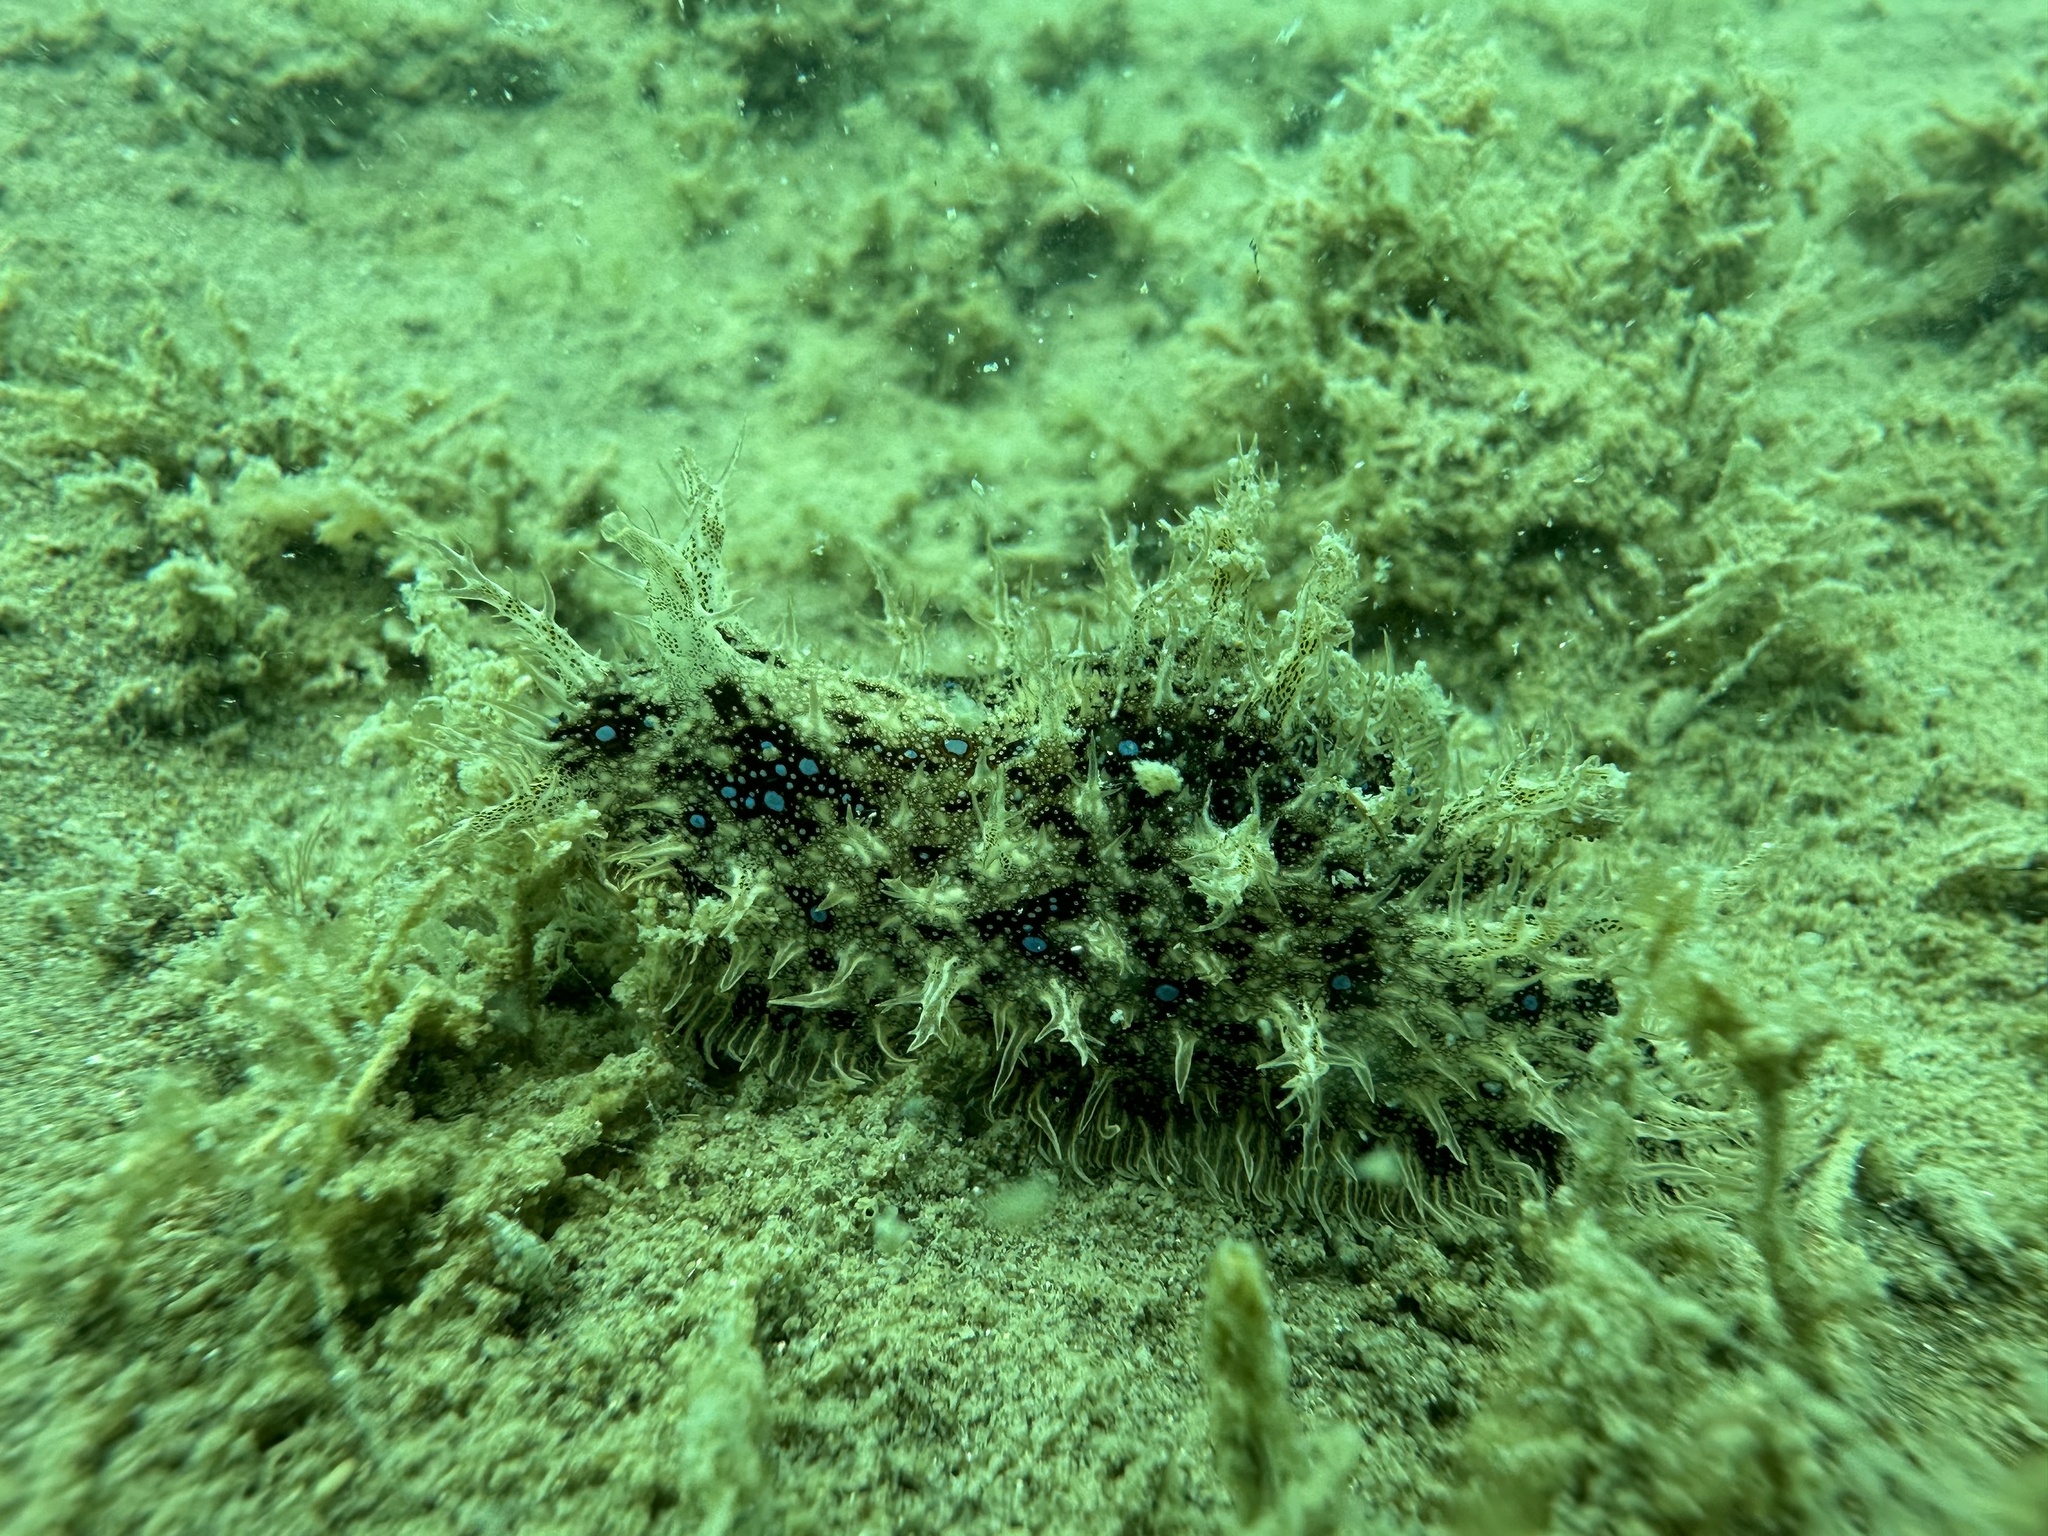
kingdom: Animalia
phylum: Mollusca
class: Gastropoda
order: Aplysiida
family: Aplysiidae
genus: Bursatella
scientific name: Bursatella leachii
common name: Shaggy sea hare
